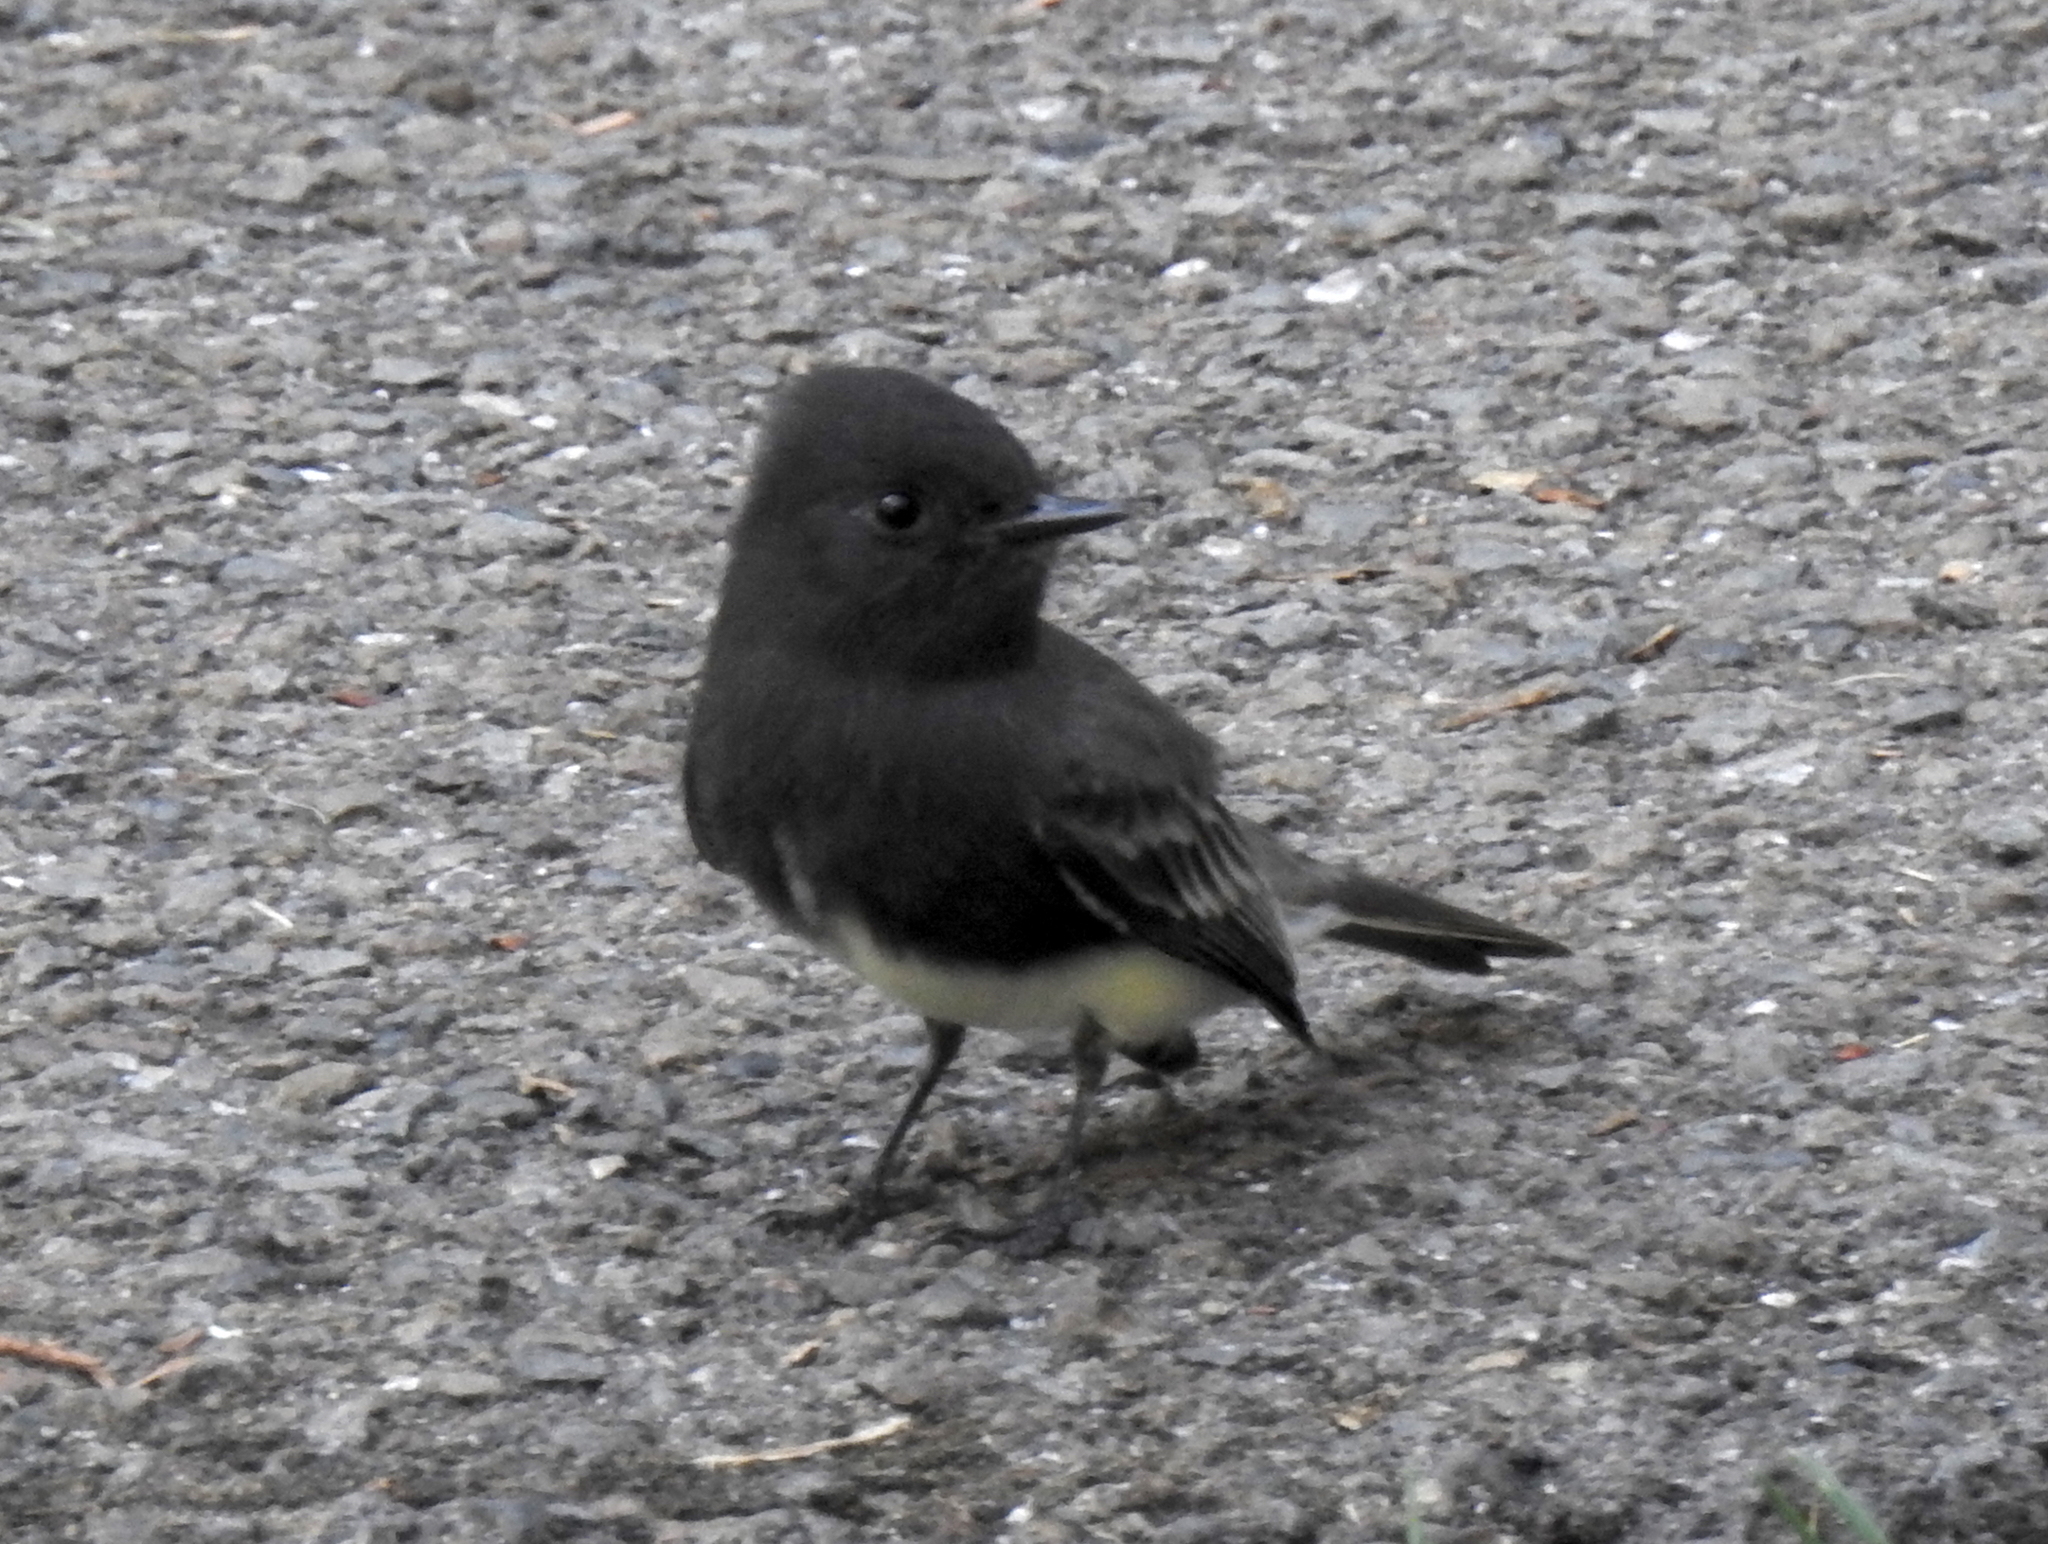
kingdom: Animalia
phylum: Chordata
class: Aves
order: Passeriformes
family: Tyrannidae
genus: Sayornis
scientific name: Sayornis nigricans
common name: Black phoebe
